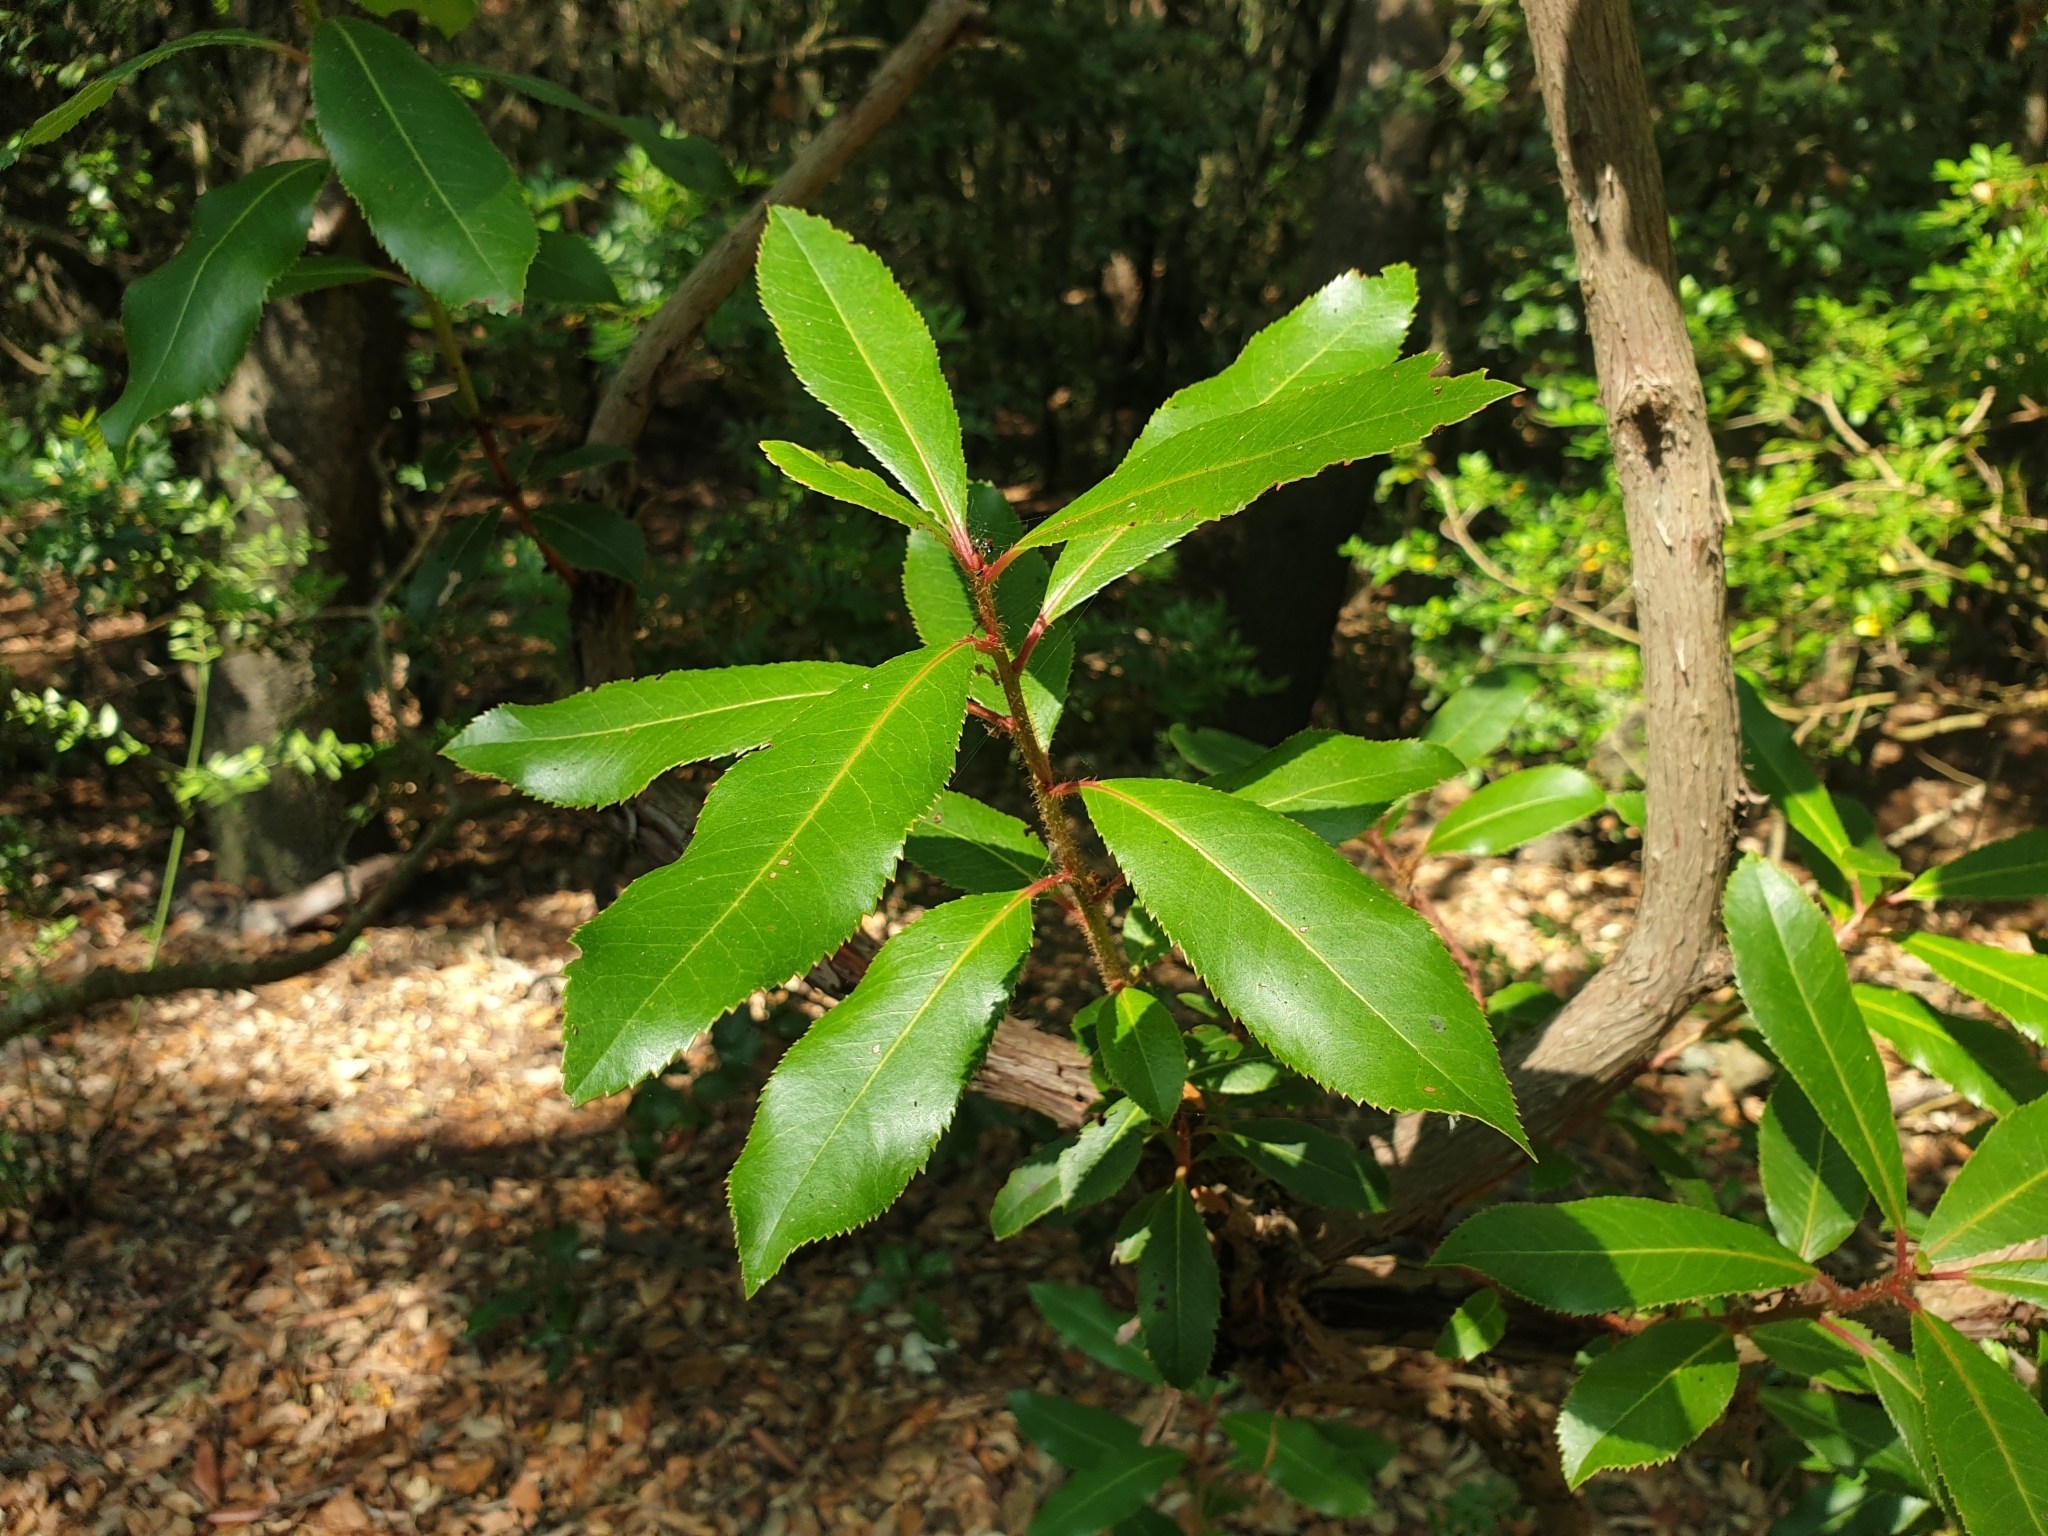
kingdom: Plantae
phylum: Tracheophyta
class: Magnoliopsida
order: Ericales
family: Ericaceae
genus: Arbutus
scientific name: Arbutus unedo
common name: Strawberry-tree
